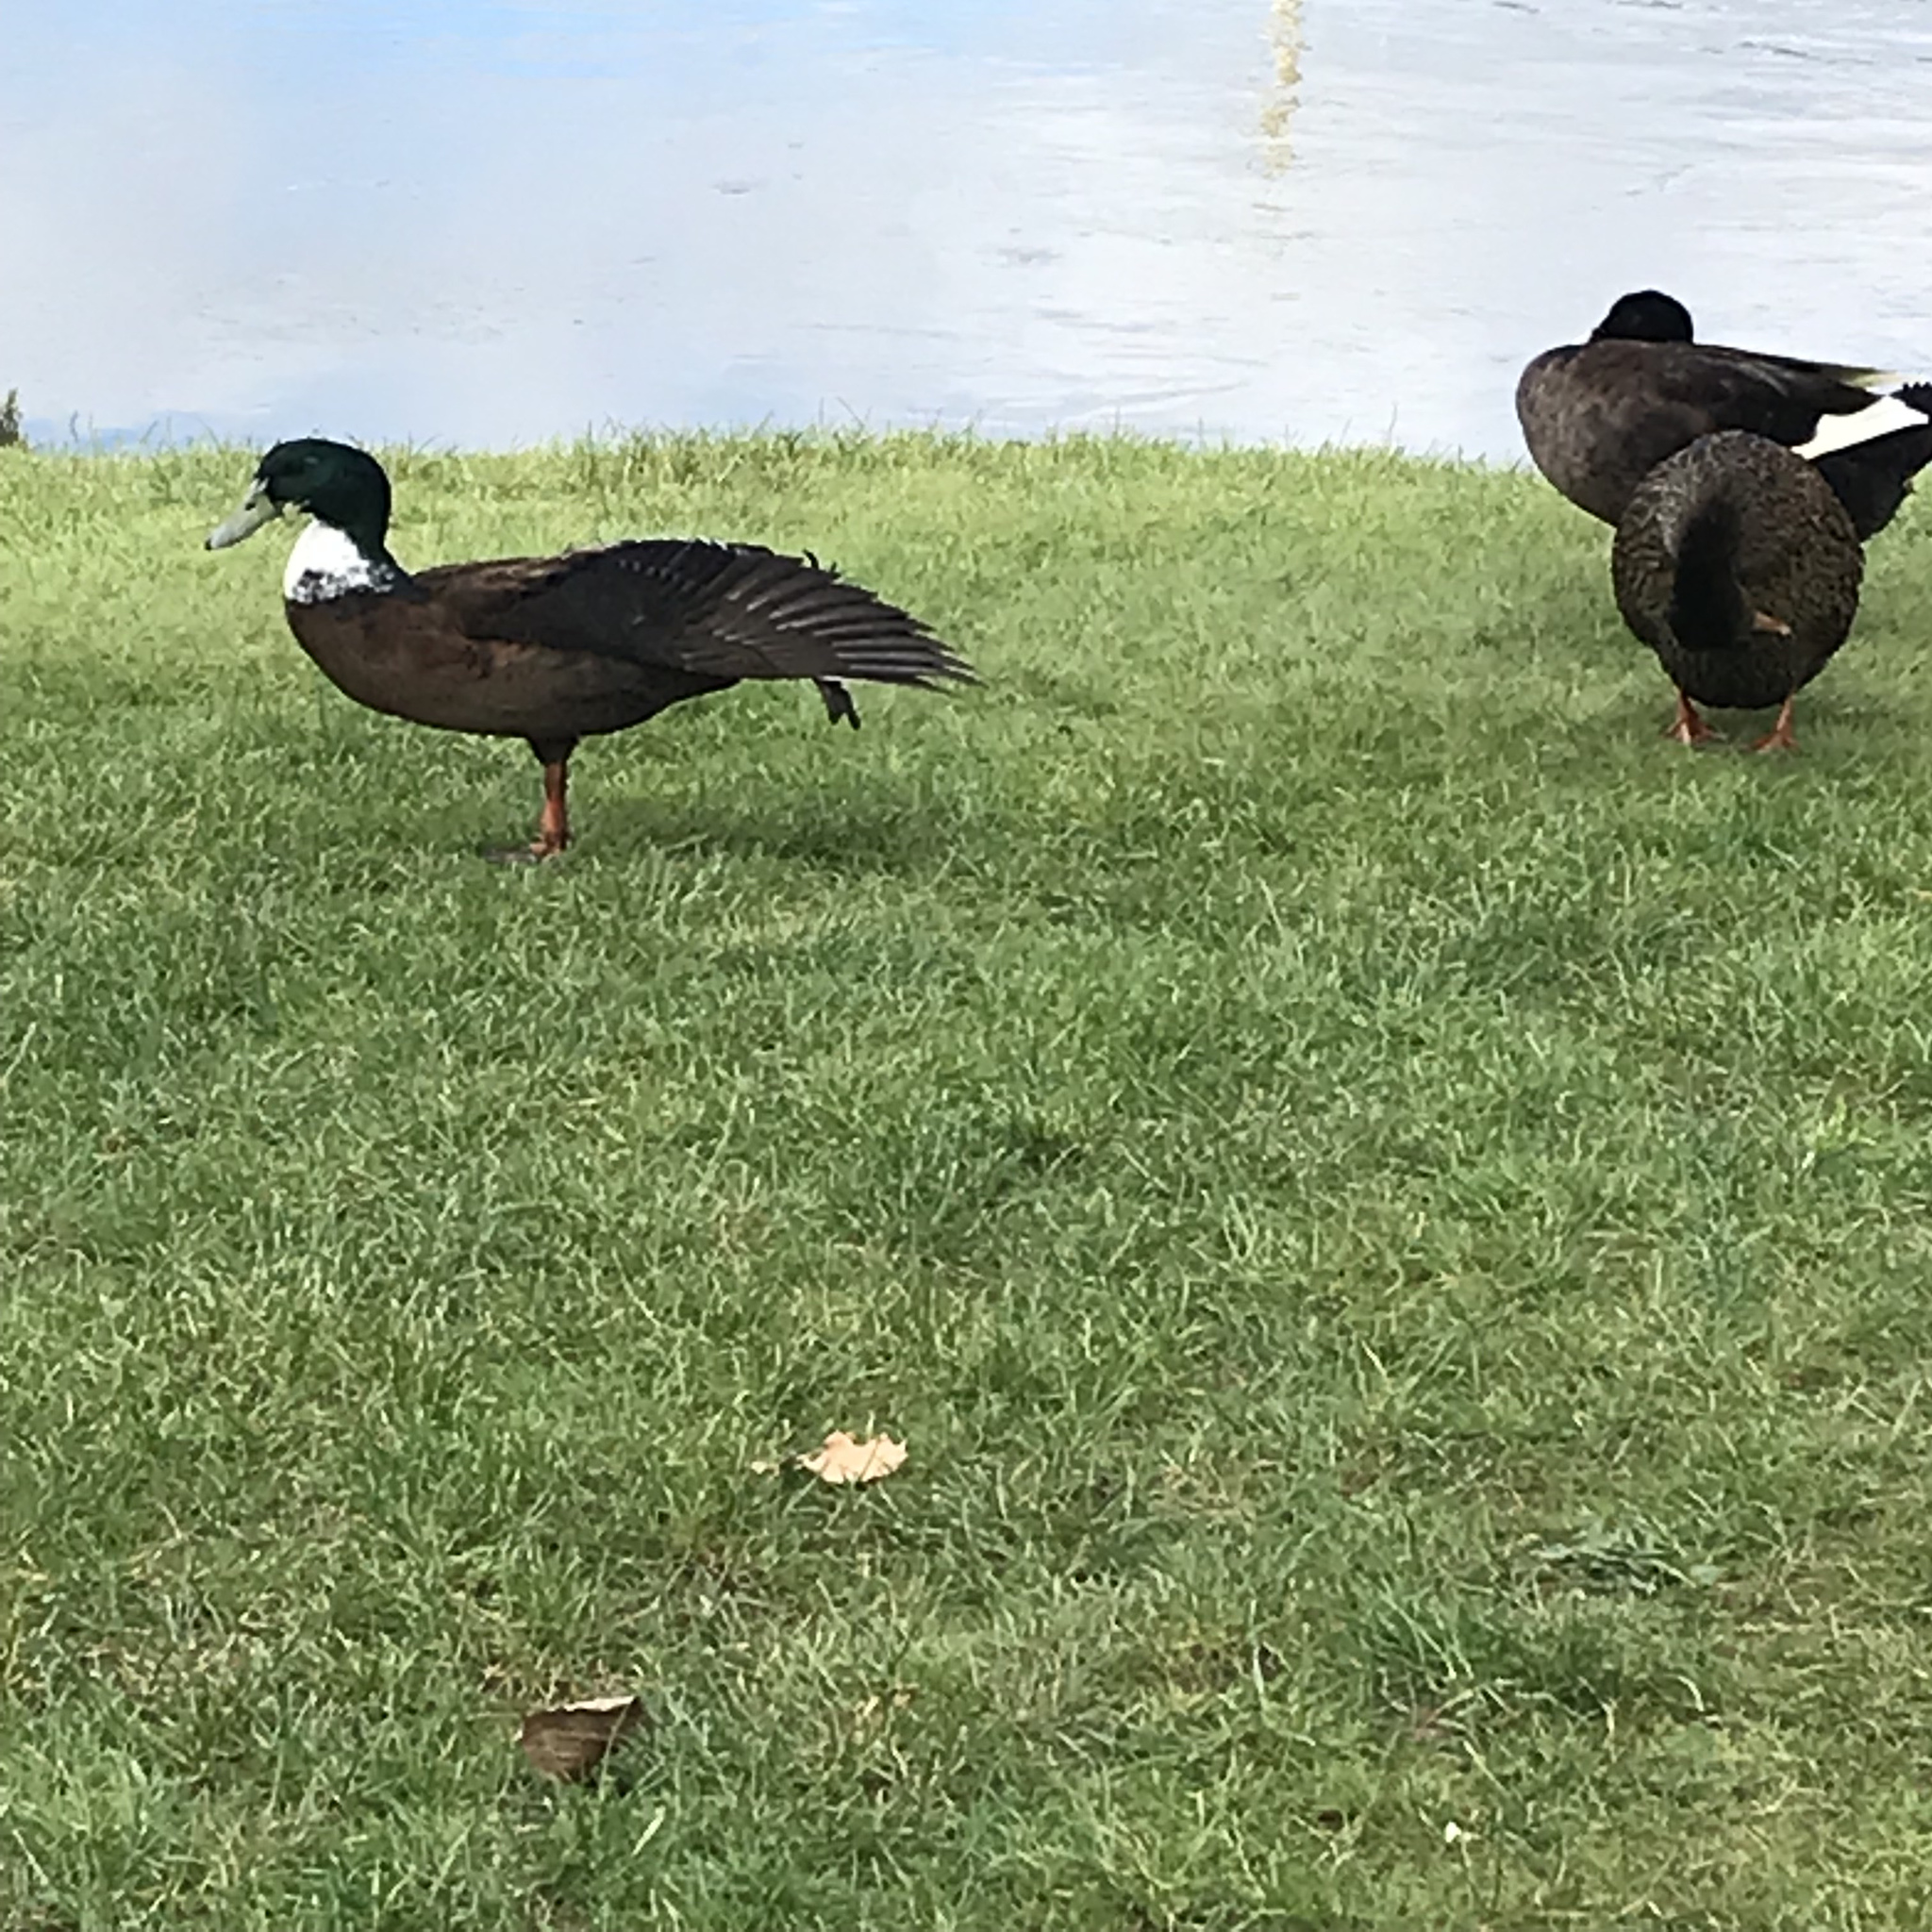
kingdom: Animalia
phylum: Chordata
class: Aves
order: Anseriformes
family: Anatidae
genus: Anas
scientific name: Anas platyrhynchos
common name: Mallard
